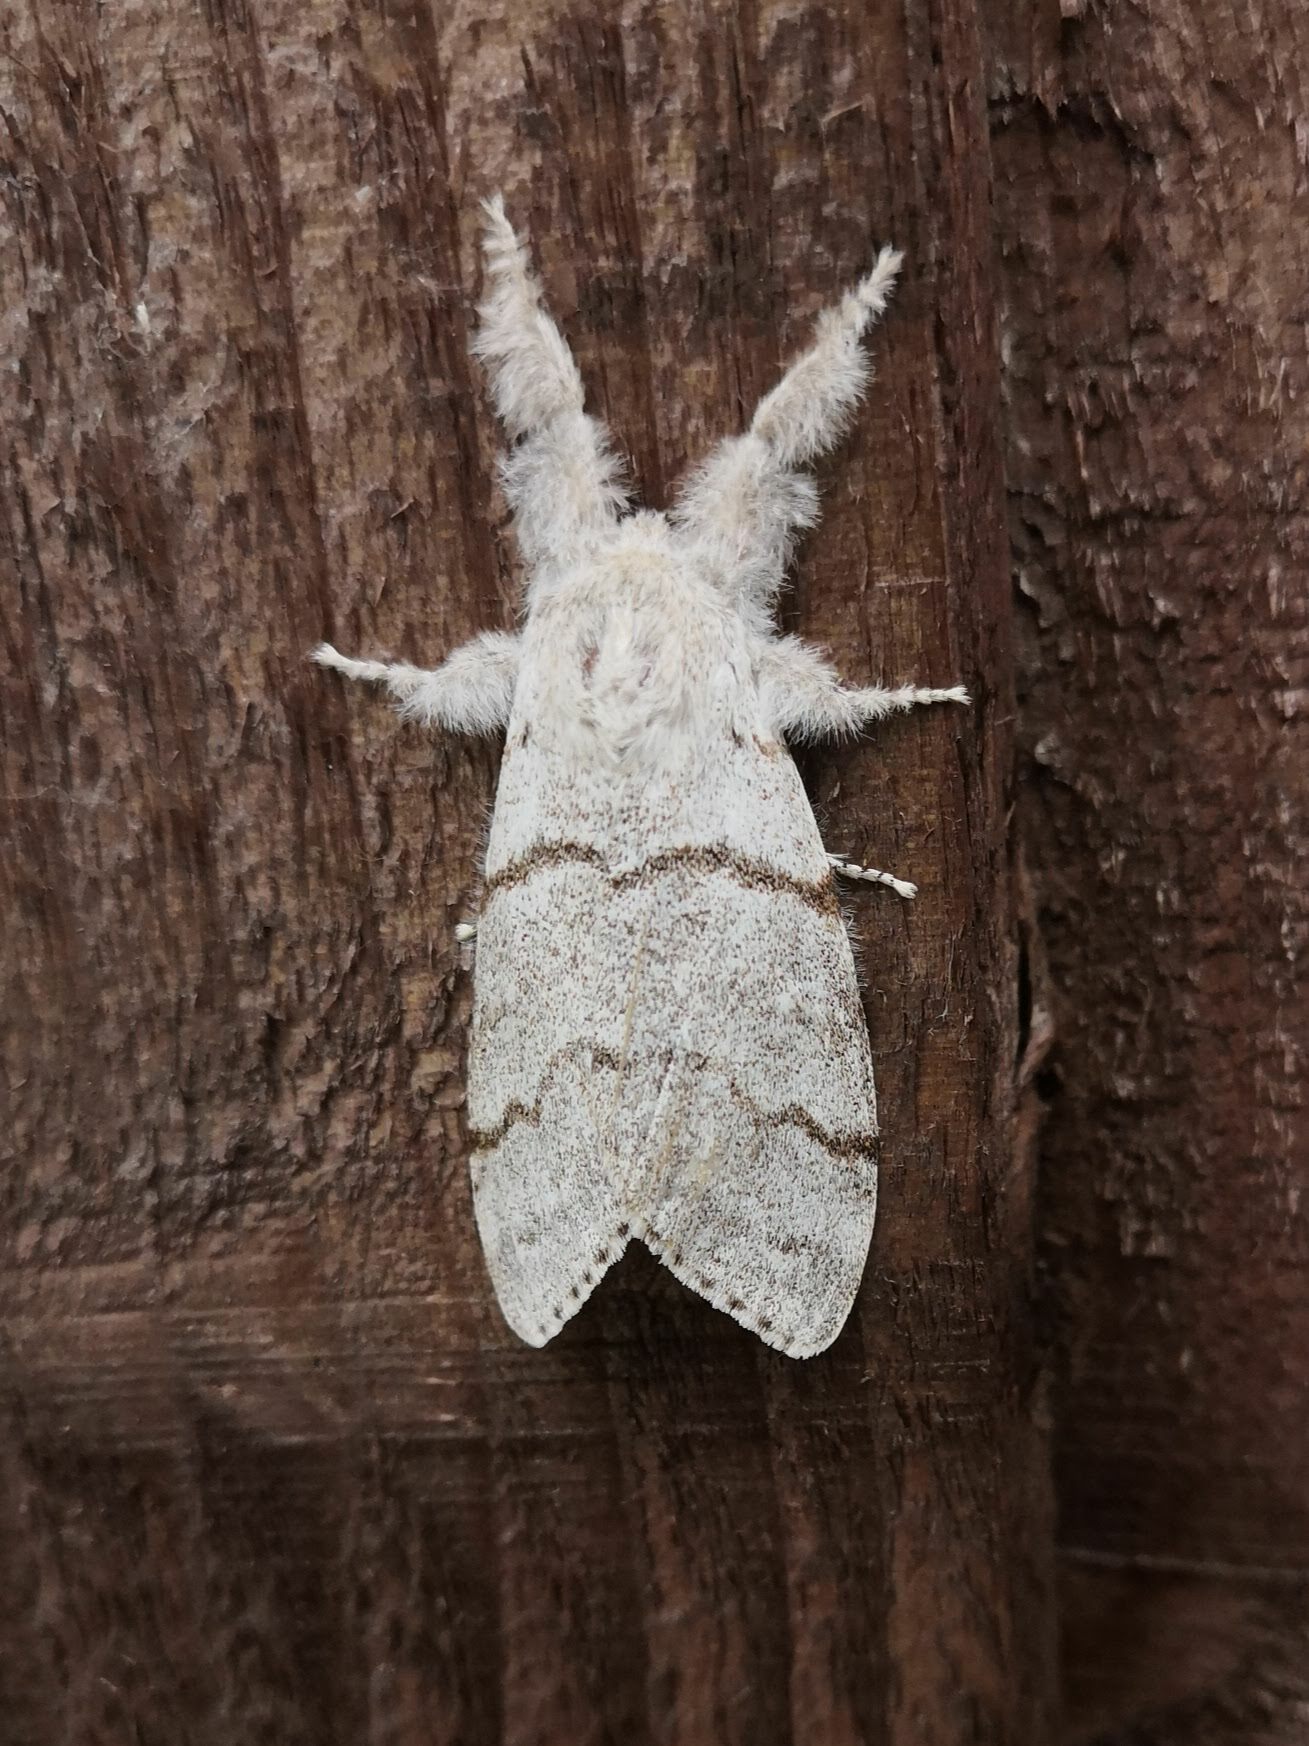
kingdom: Animalia
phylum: Arthropoda
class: Insecta
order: Lepidoptera
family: Erebidae
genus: Calliteara
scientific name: Calliteara pudibunda
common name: Pale tussock
